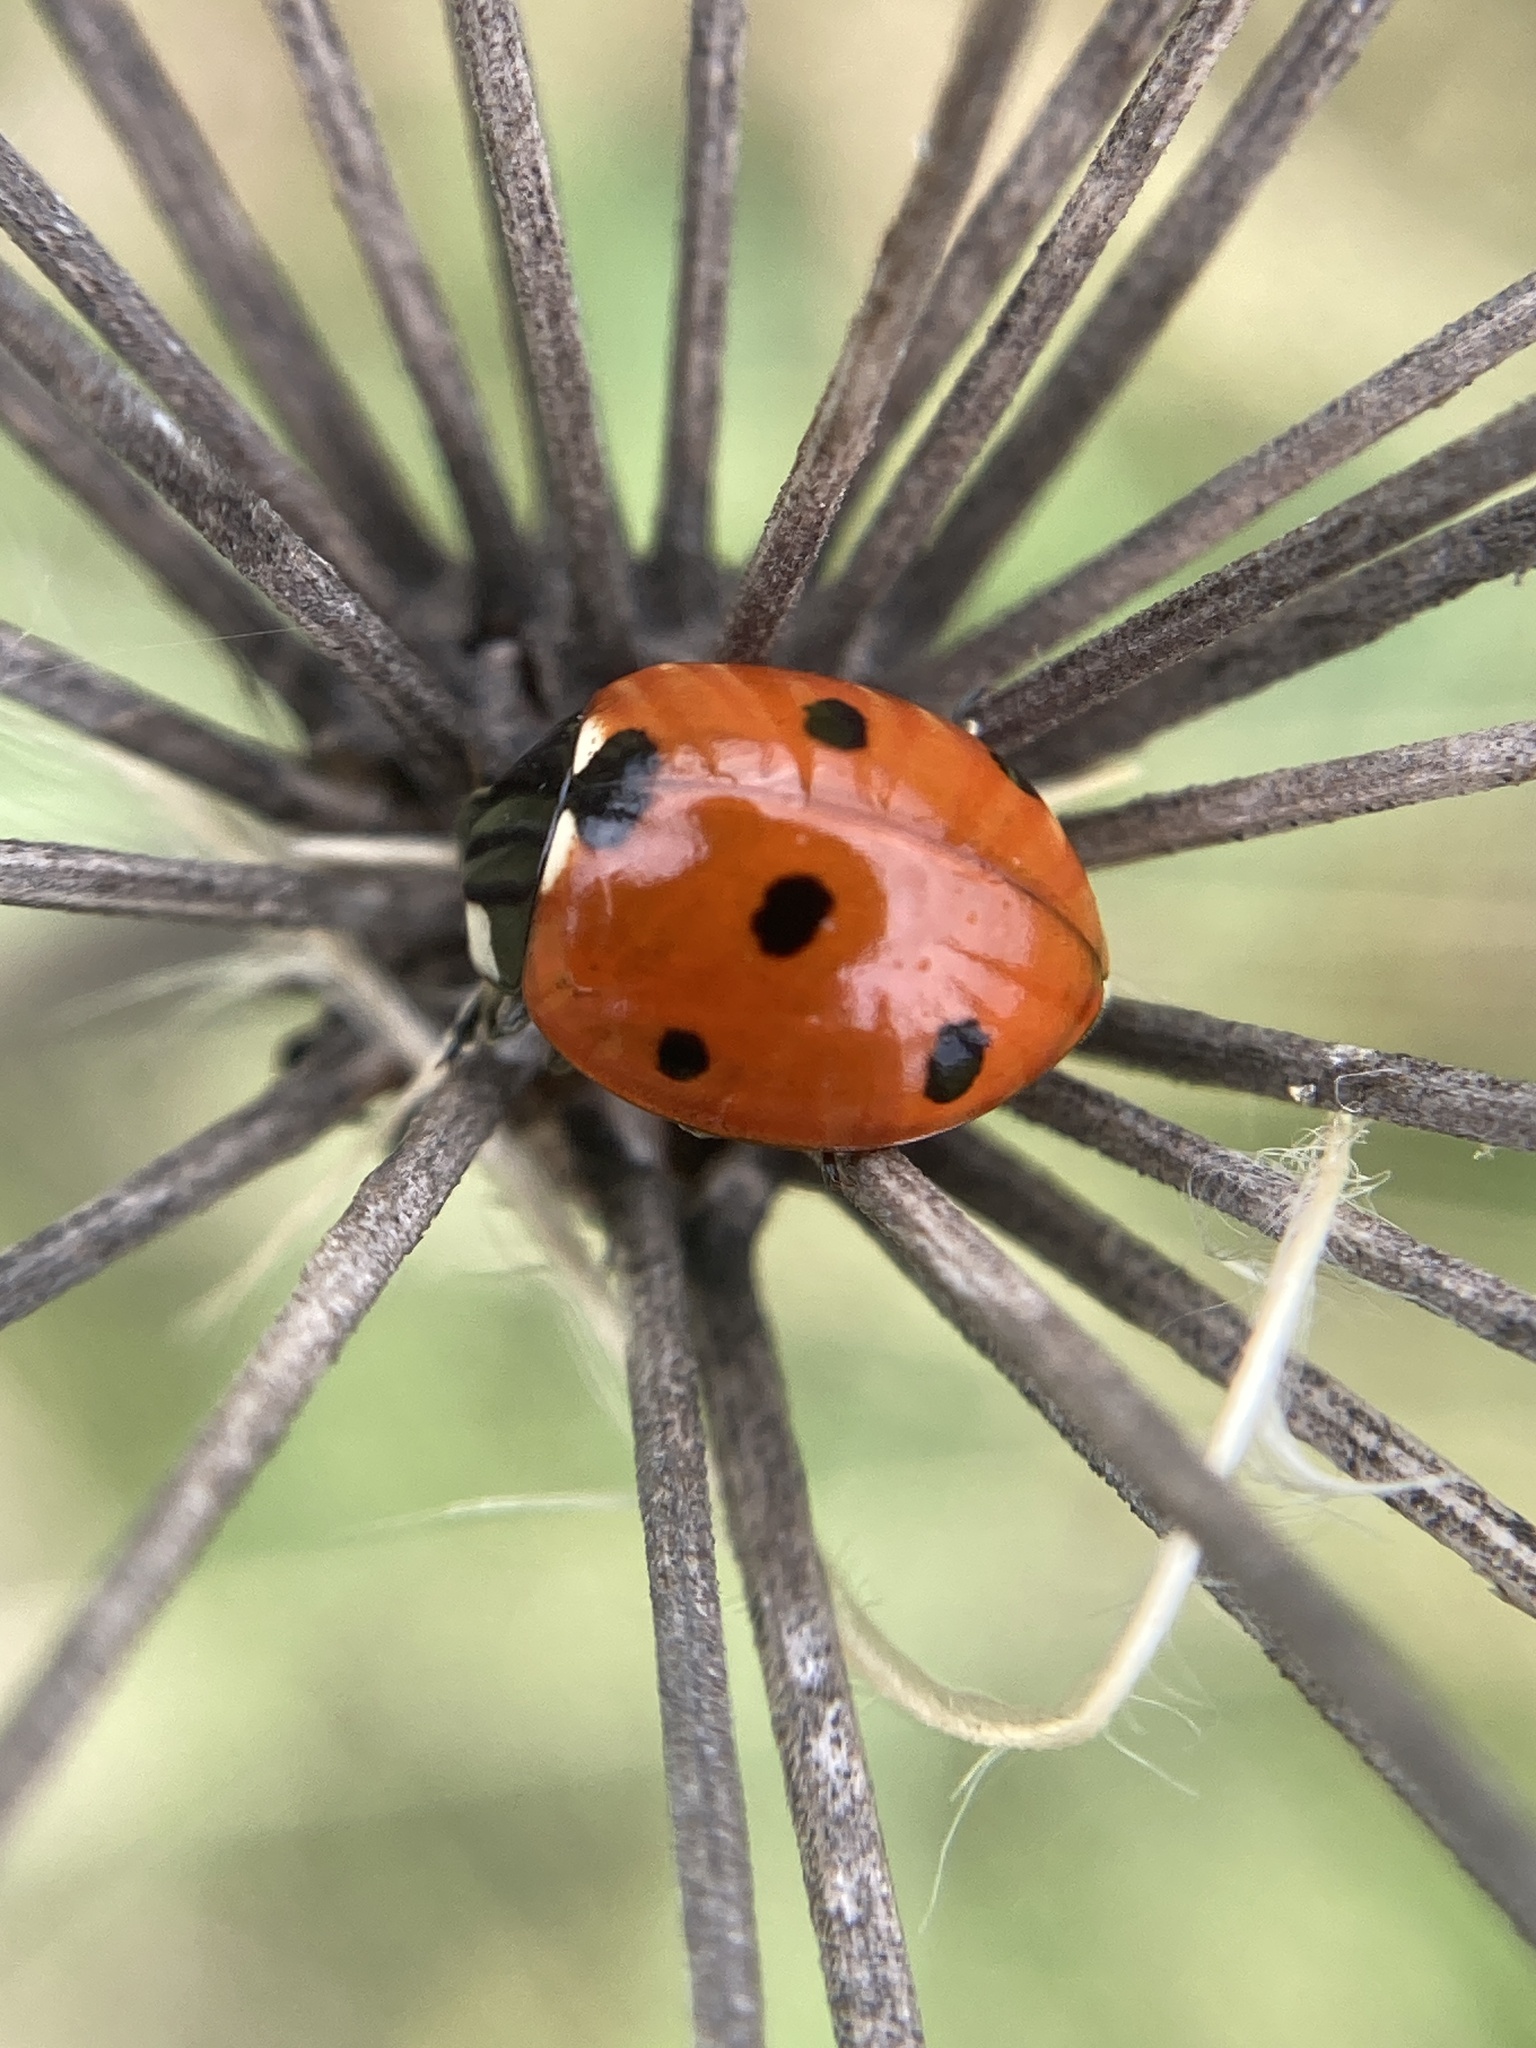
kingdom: Animalia
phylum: Arthropoda
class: Insecta
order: Coleoptera
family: Coccinellidae
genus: Coccinella
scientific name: Coccinella septempunctata
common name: Sevenspotted lady beetle
